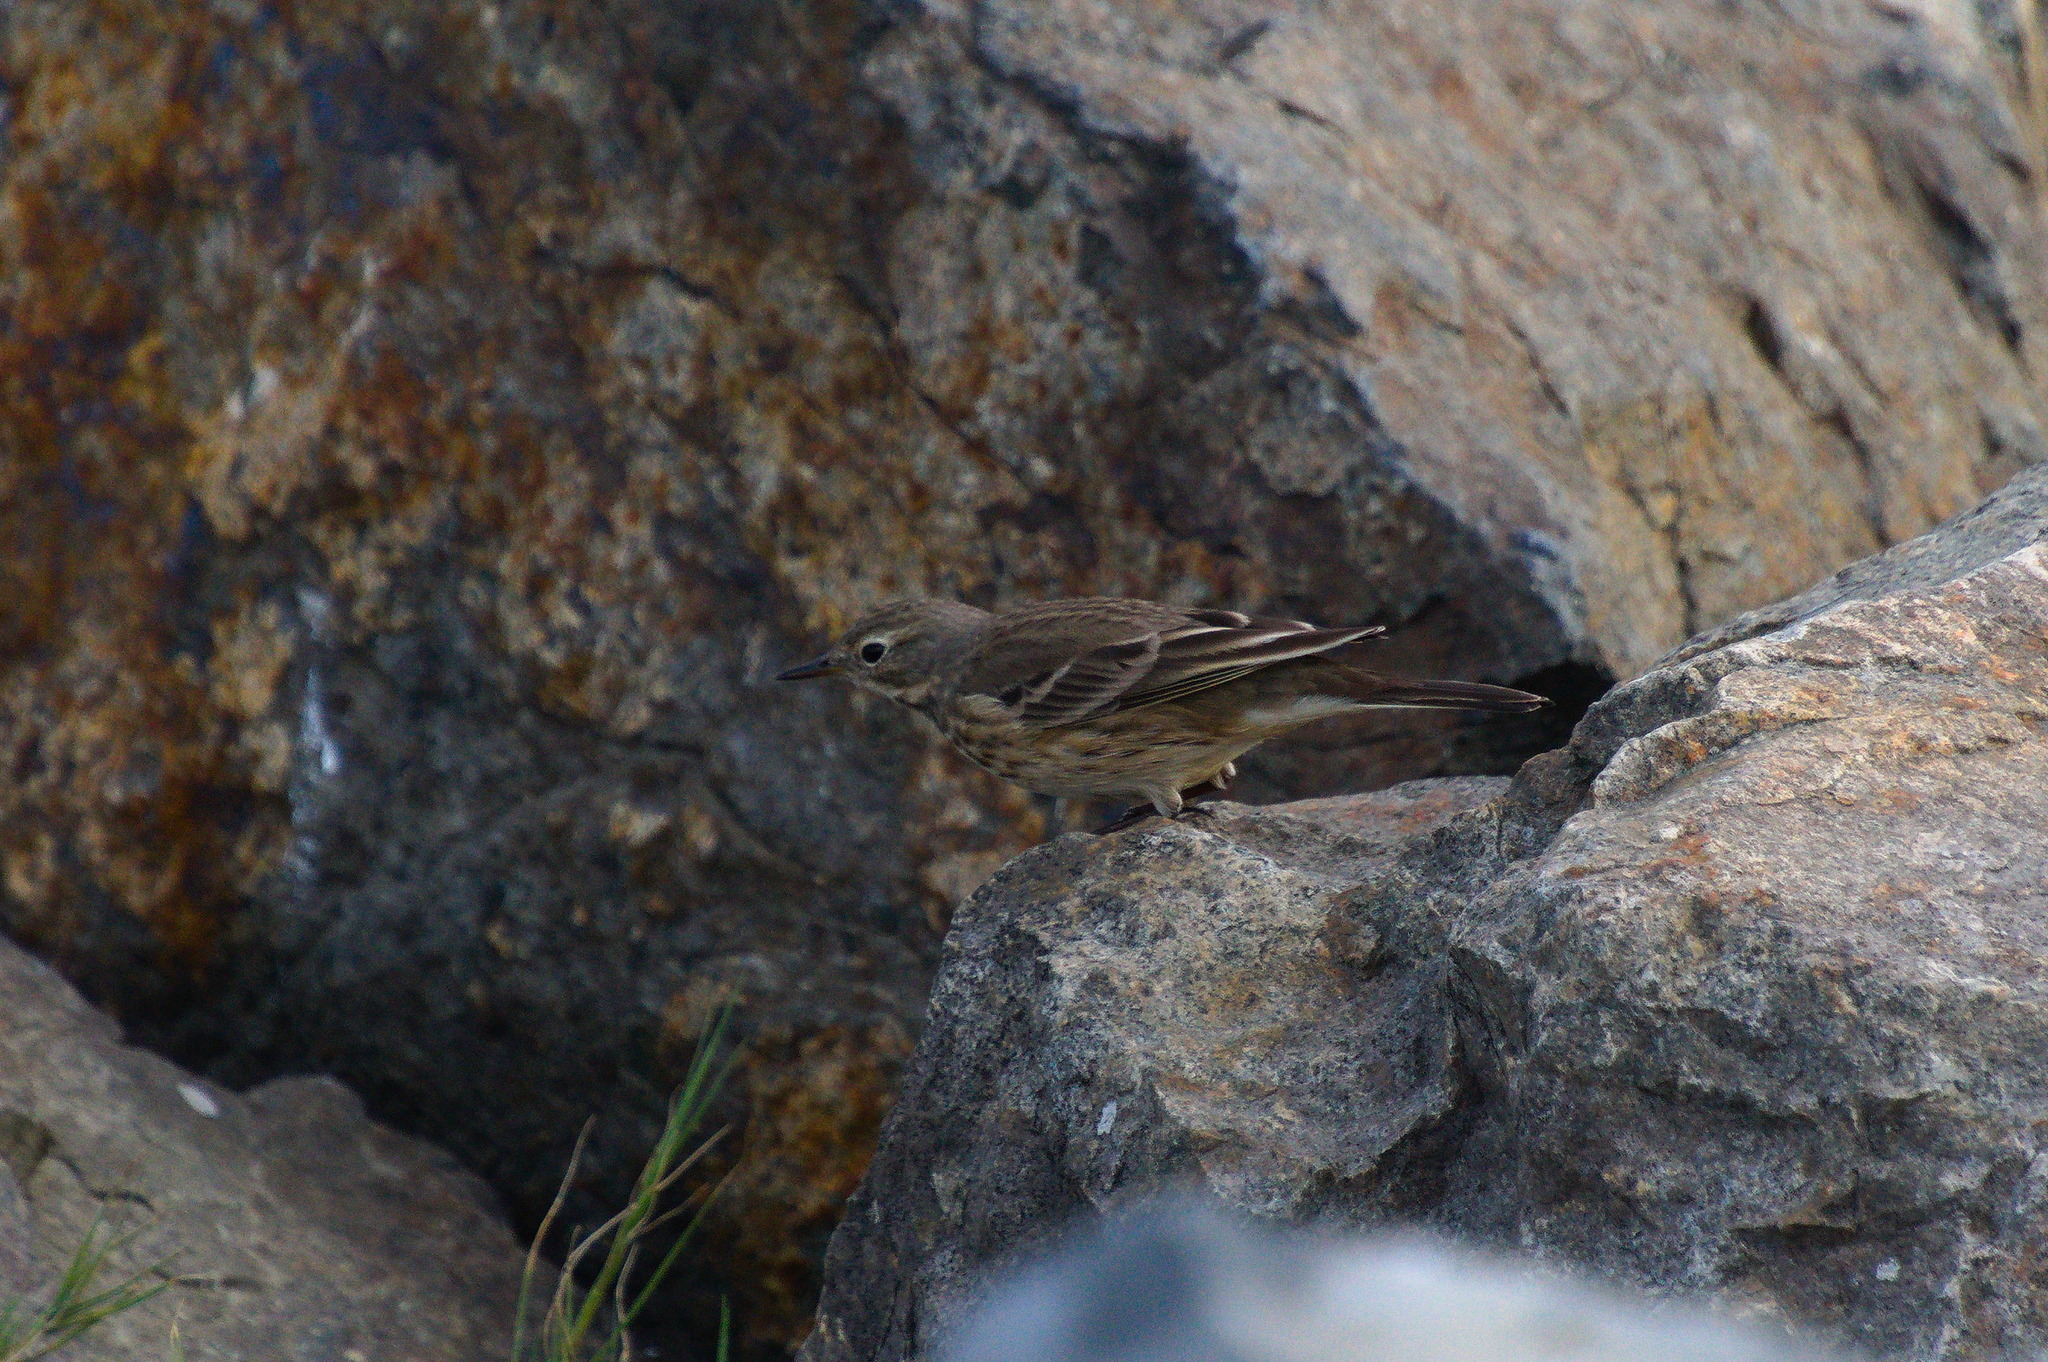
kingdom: Animalia
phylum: Chordata
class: Aves
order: Passeriformes
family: Motacillidae
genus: Anthus
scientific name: Anthus rubescens
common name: Buff-bellied pipit
